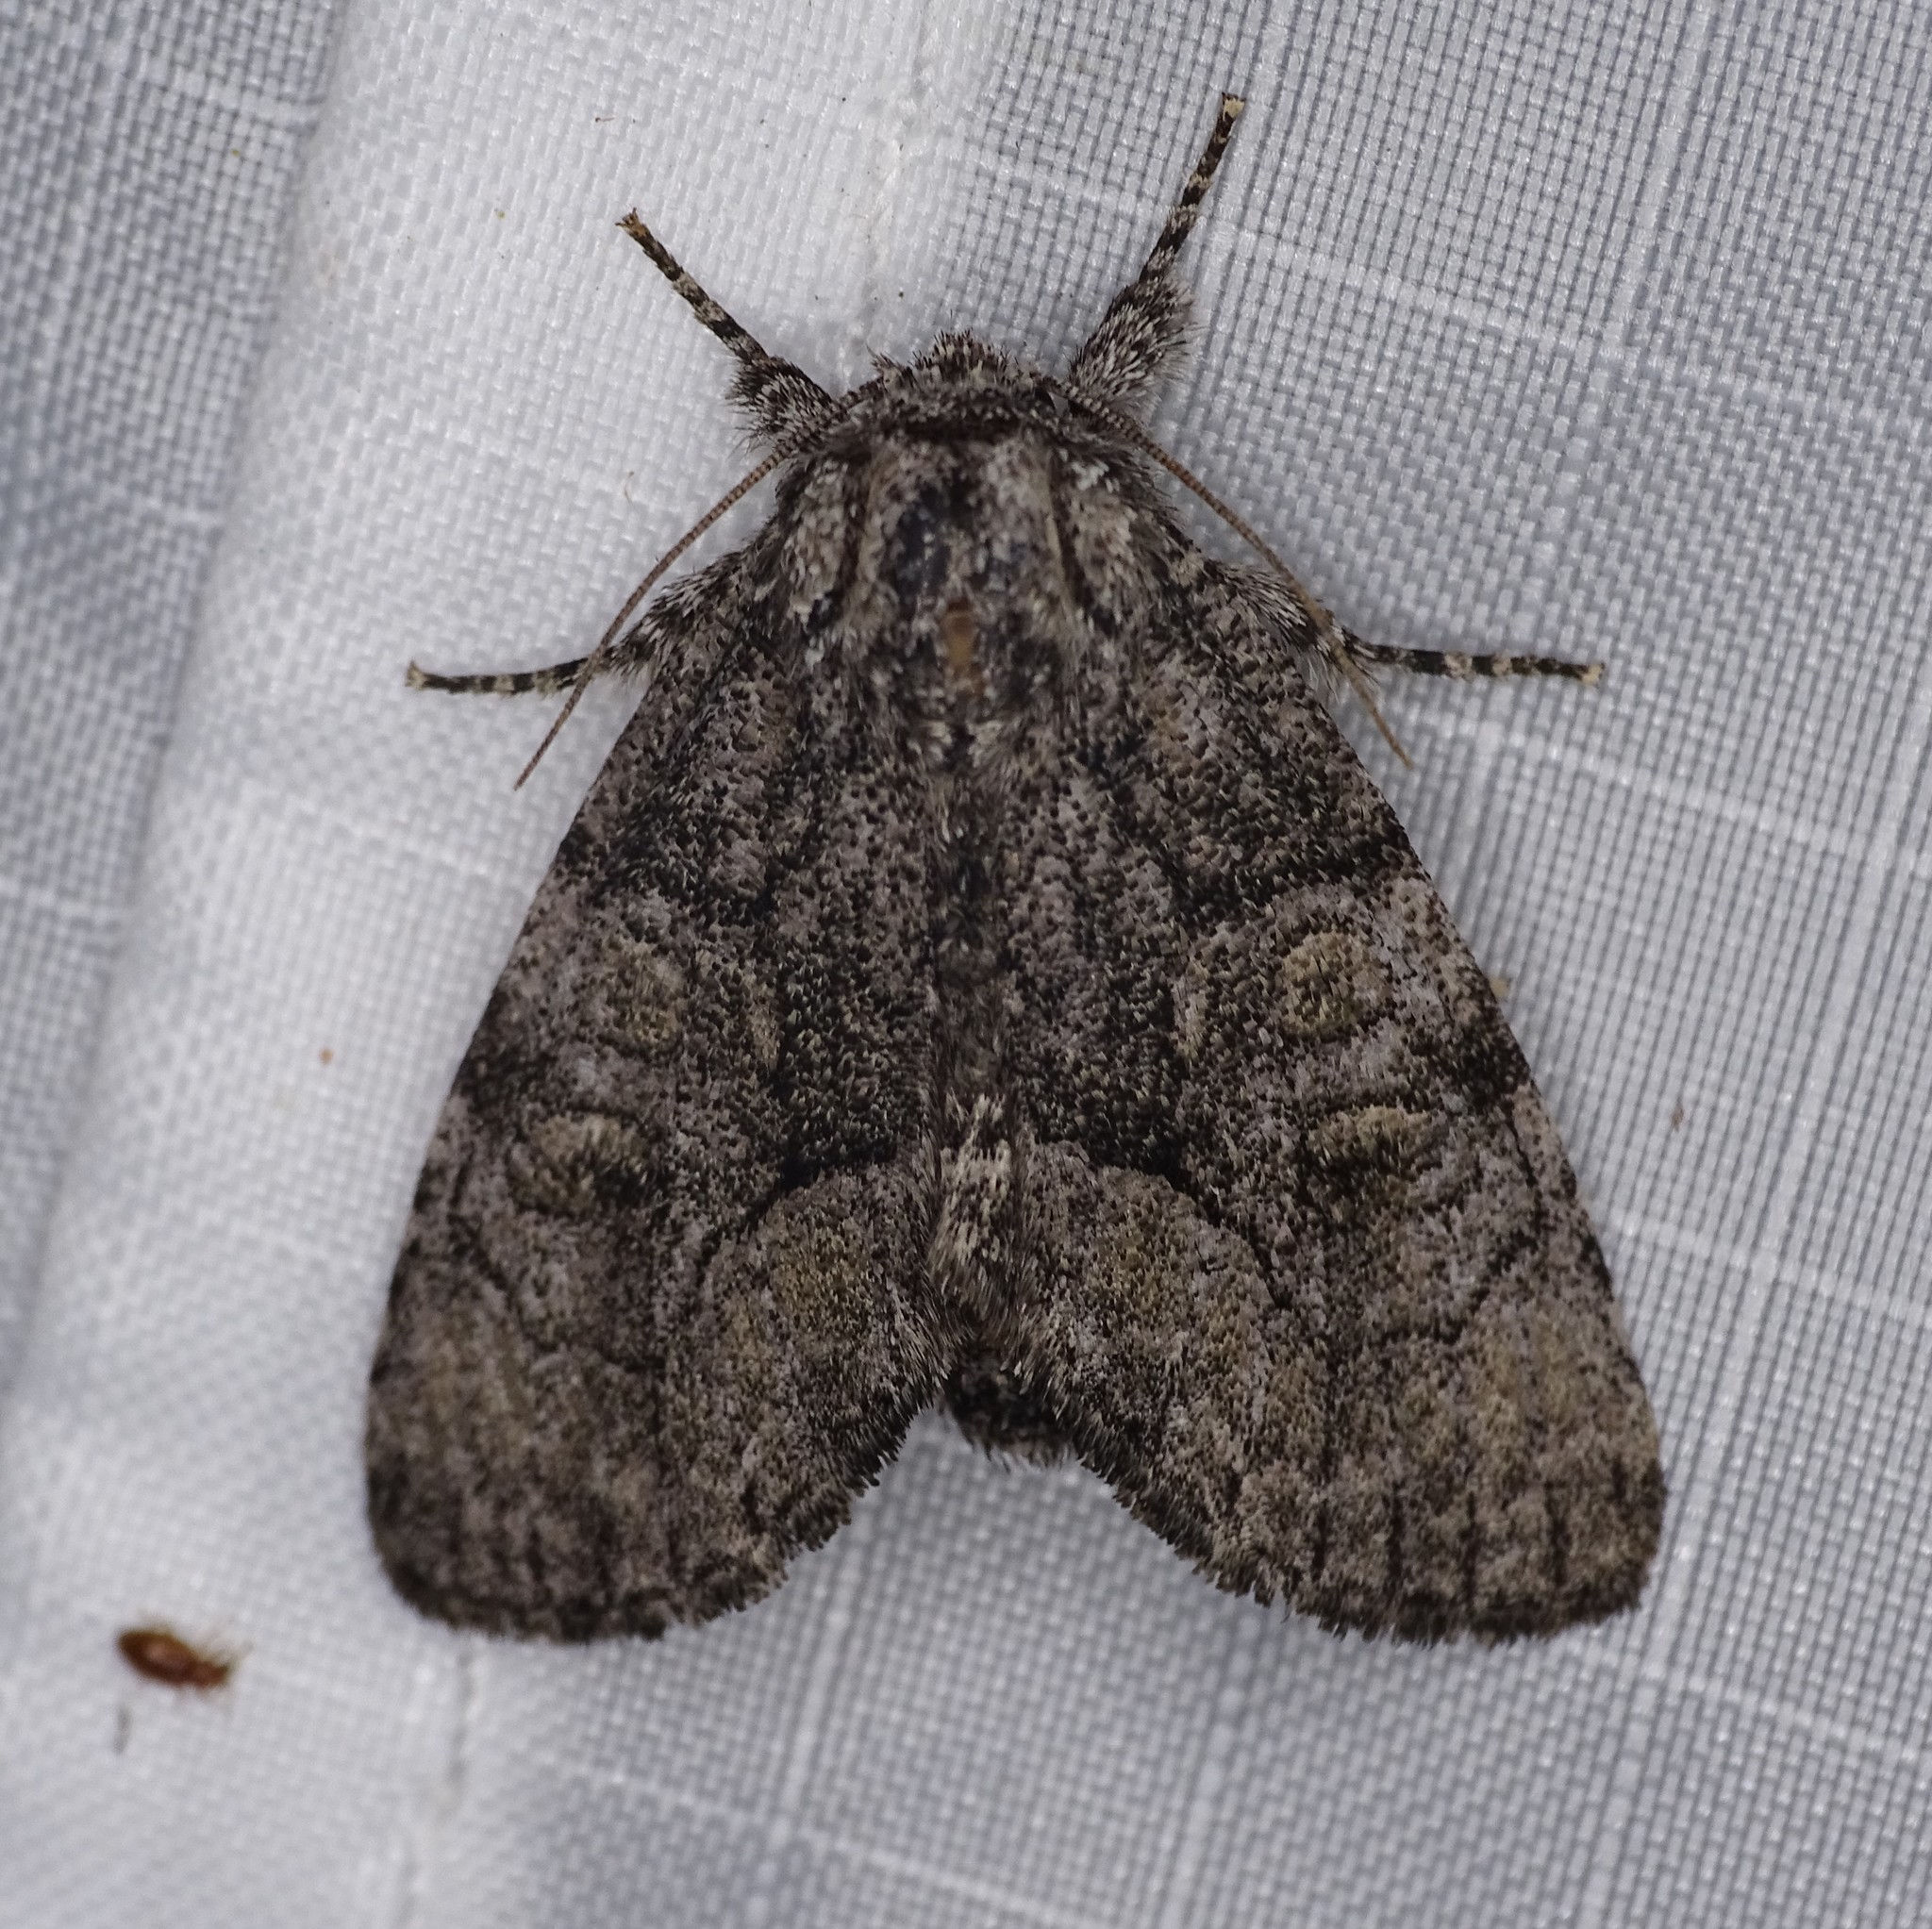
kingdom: Animalia
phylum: Arthropoda
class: Insecta
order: Lepidoptera
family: Noctuidae
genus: Raphia
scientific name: Raphia frater
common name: Brother
